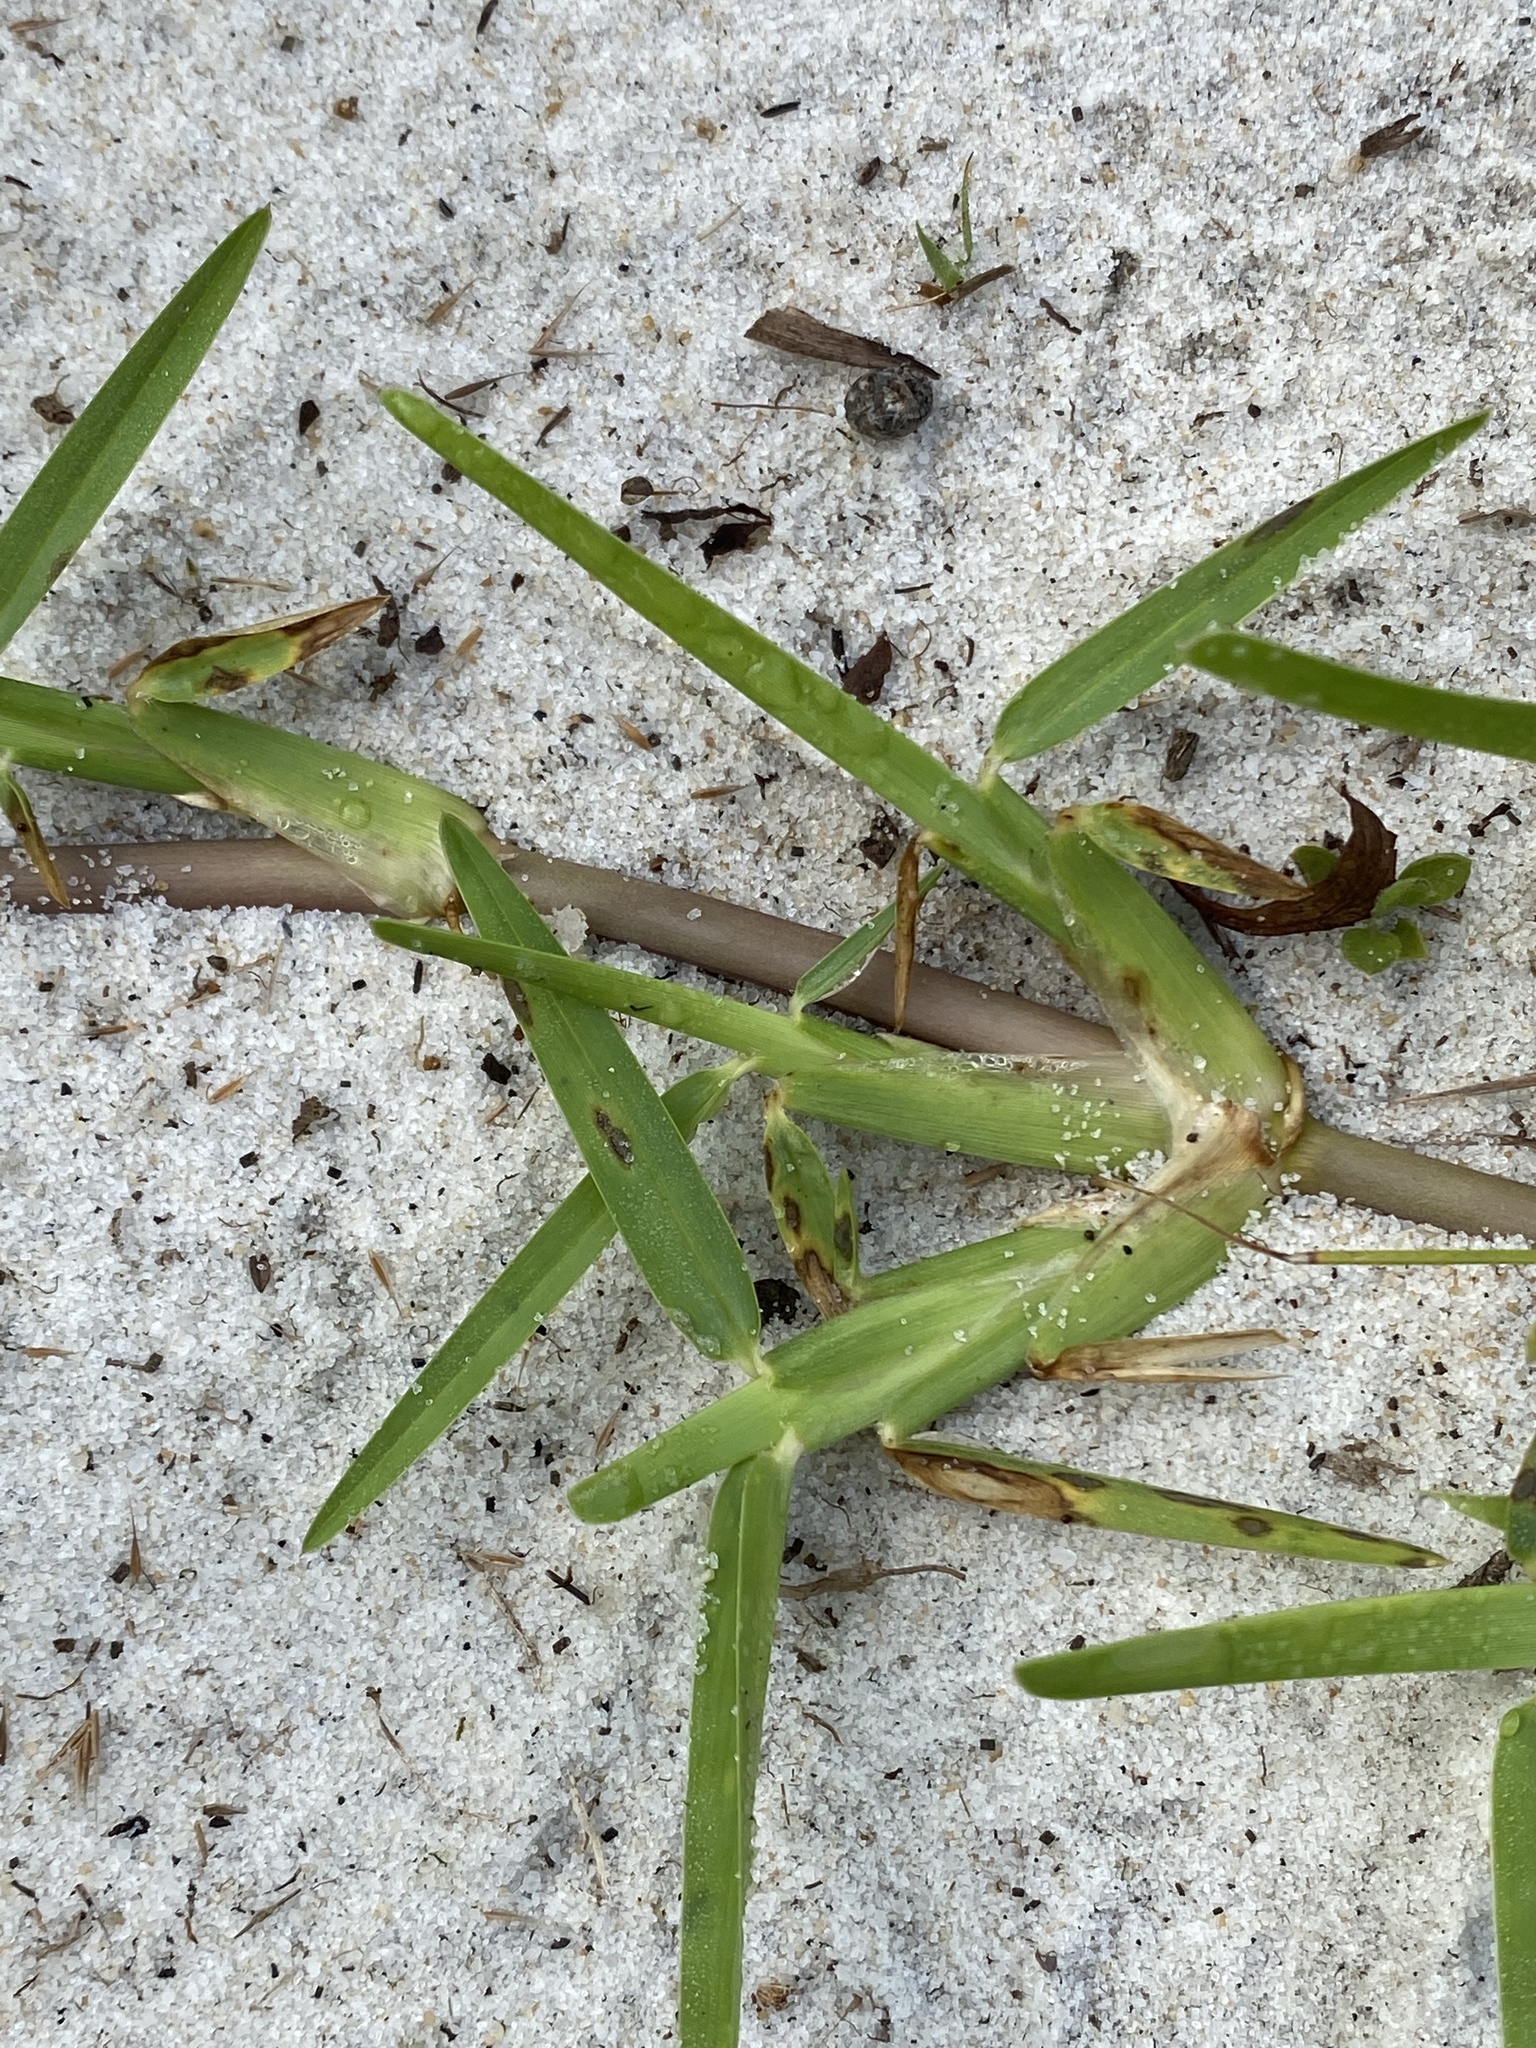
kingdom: Plantae
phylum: Tracheophyta
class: Liliopsida
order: Poales
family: Poaceae
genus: Stenotaphrum
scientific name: Stenotaphrum secundatum
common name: St. augustine grass
